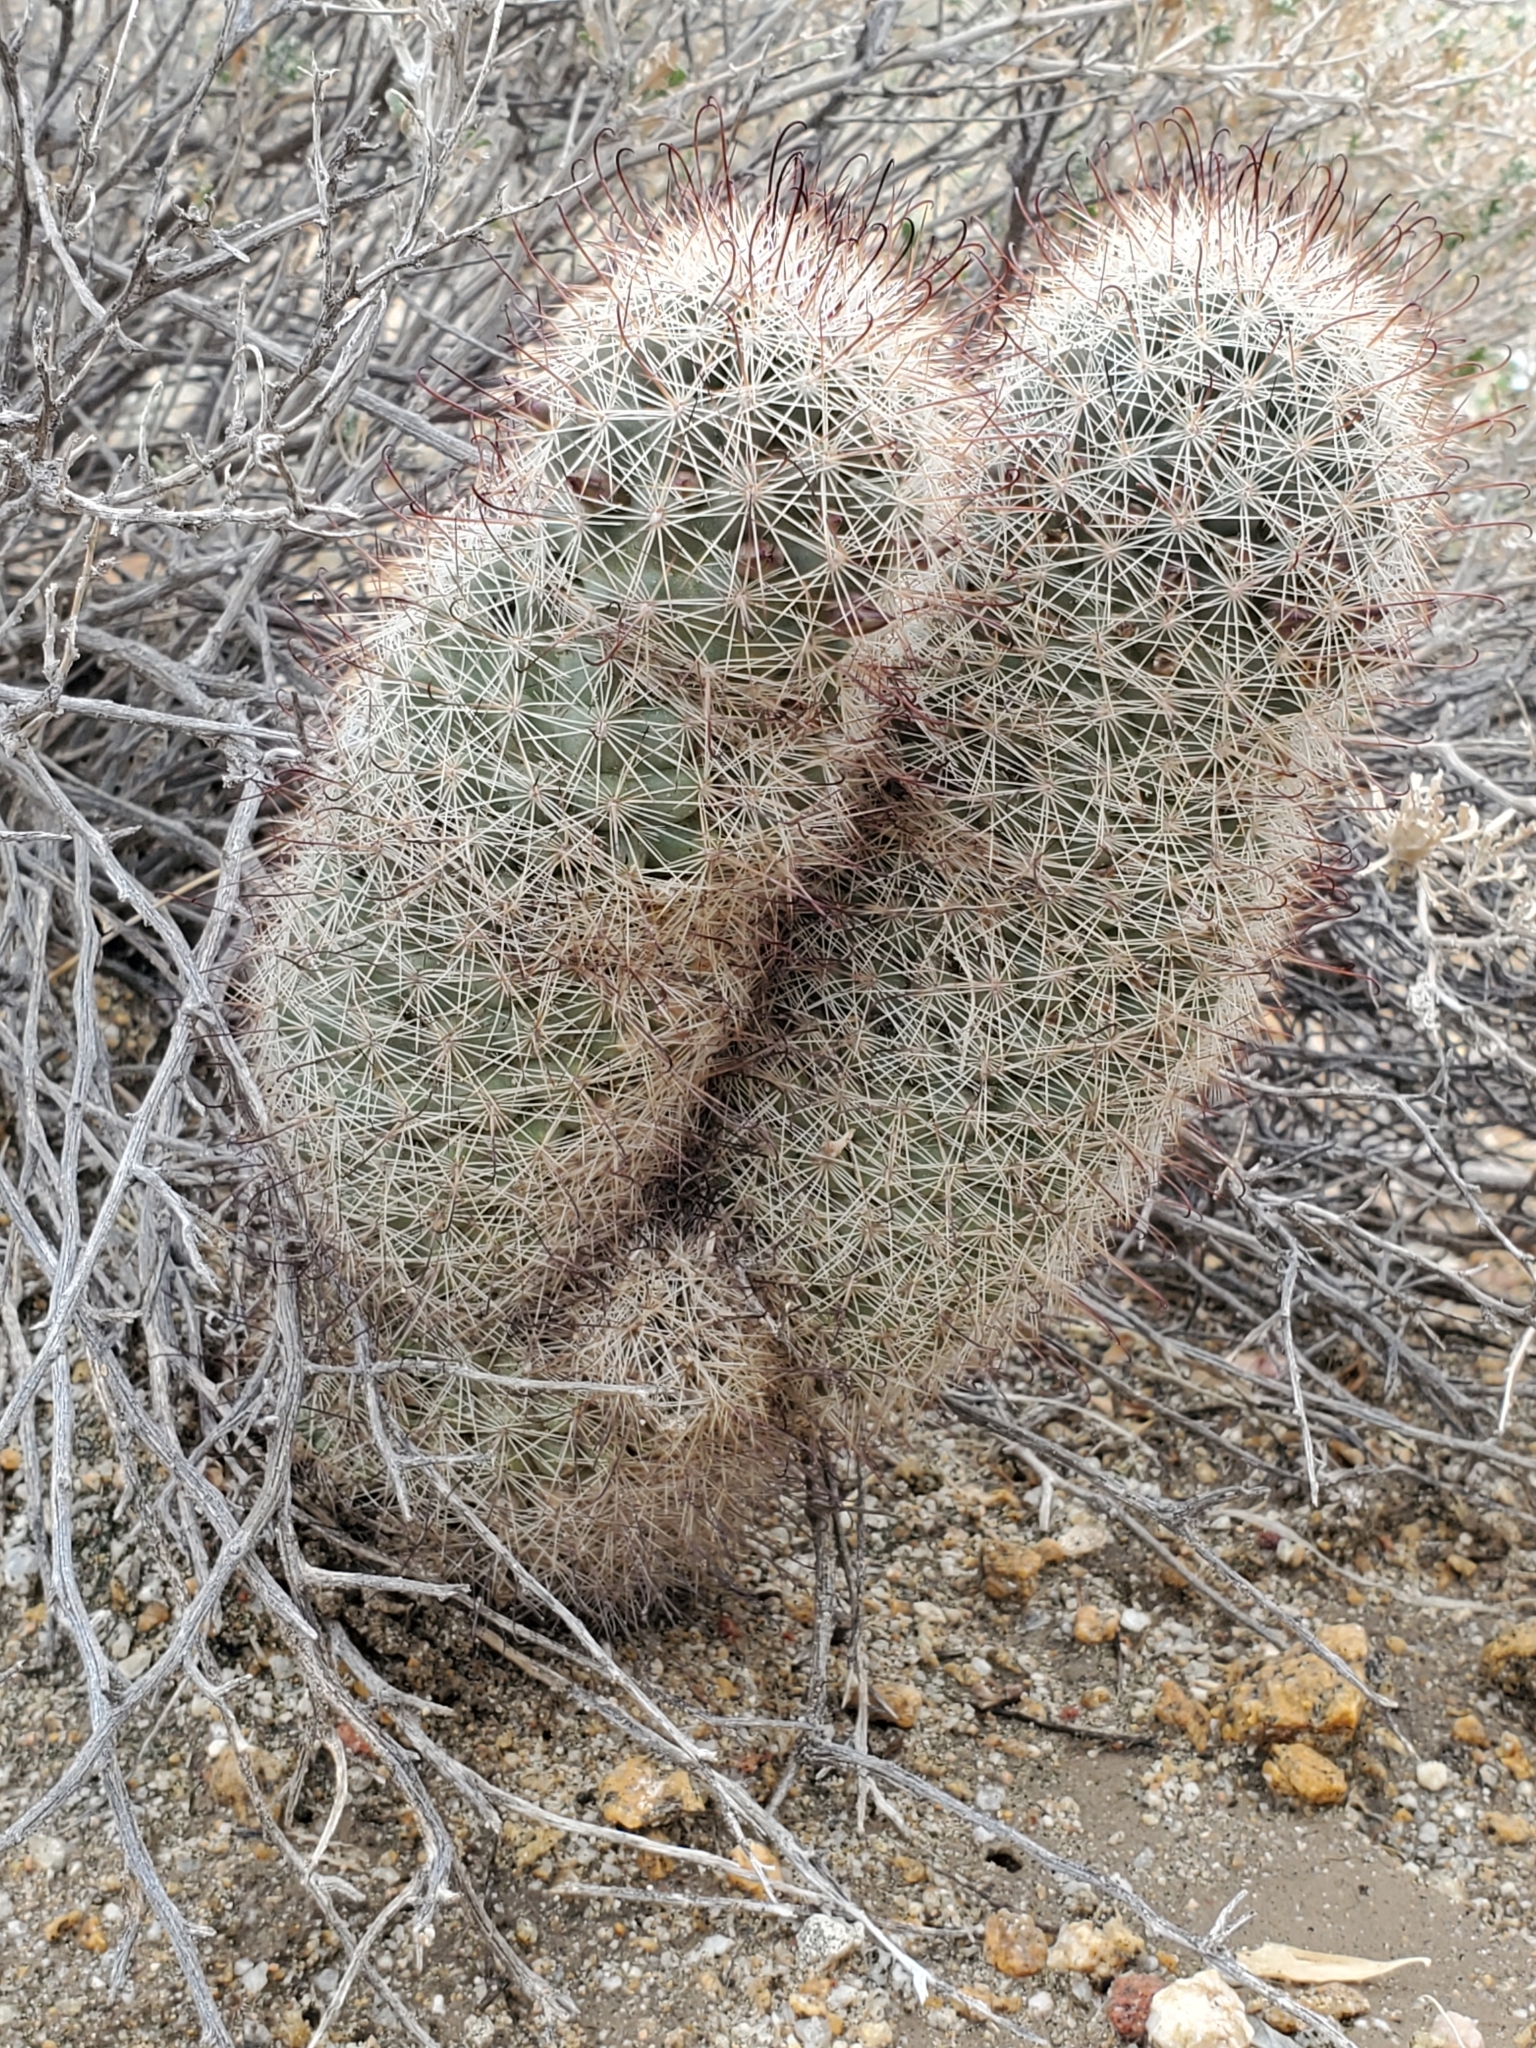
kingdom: Plantae
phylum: Tracheophyta
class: Magnoliopsida
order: Caryophyllales
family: Cactaceae
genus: Cochemiea
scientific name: Cochemiea dioica
